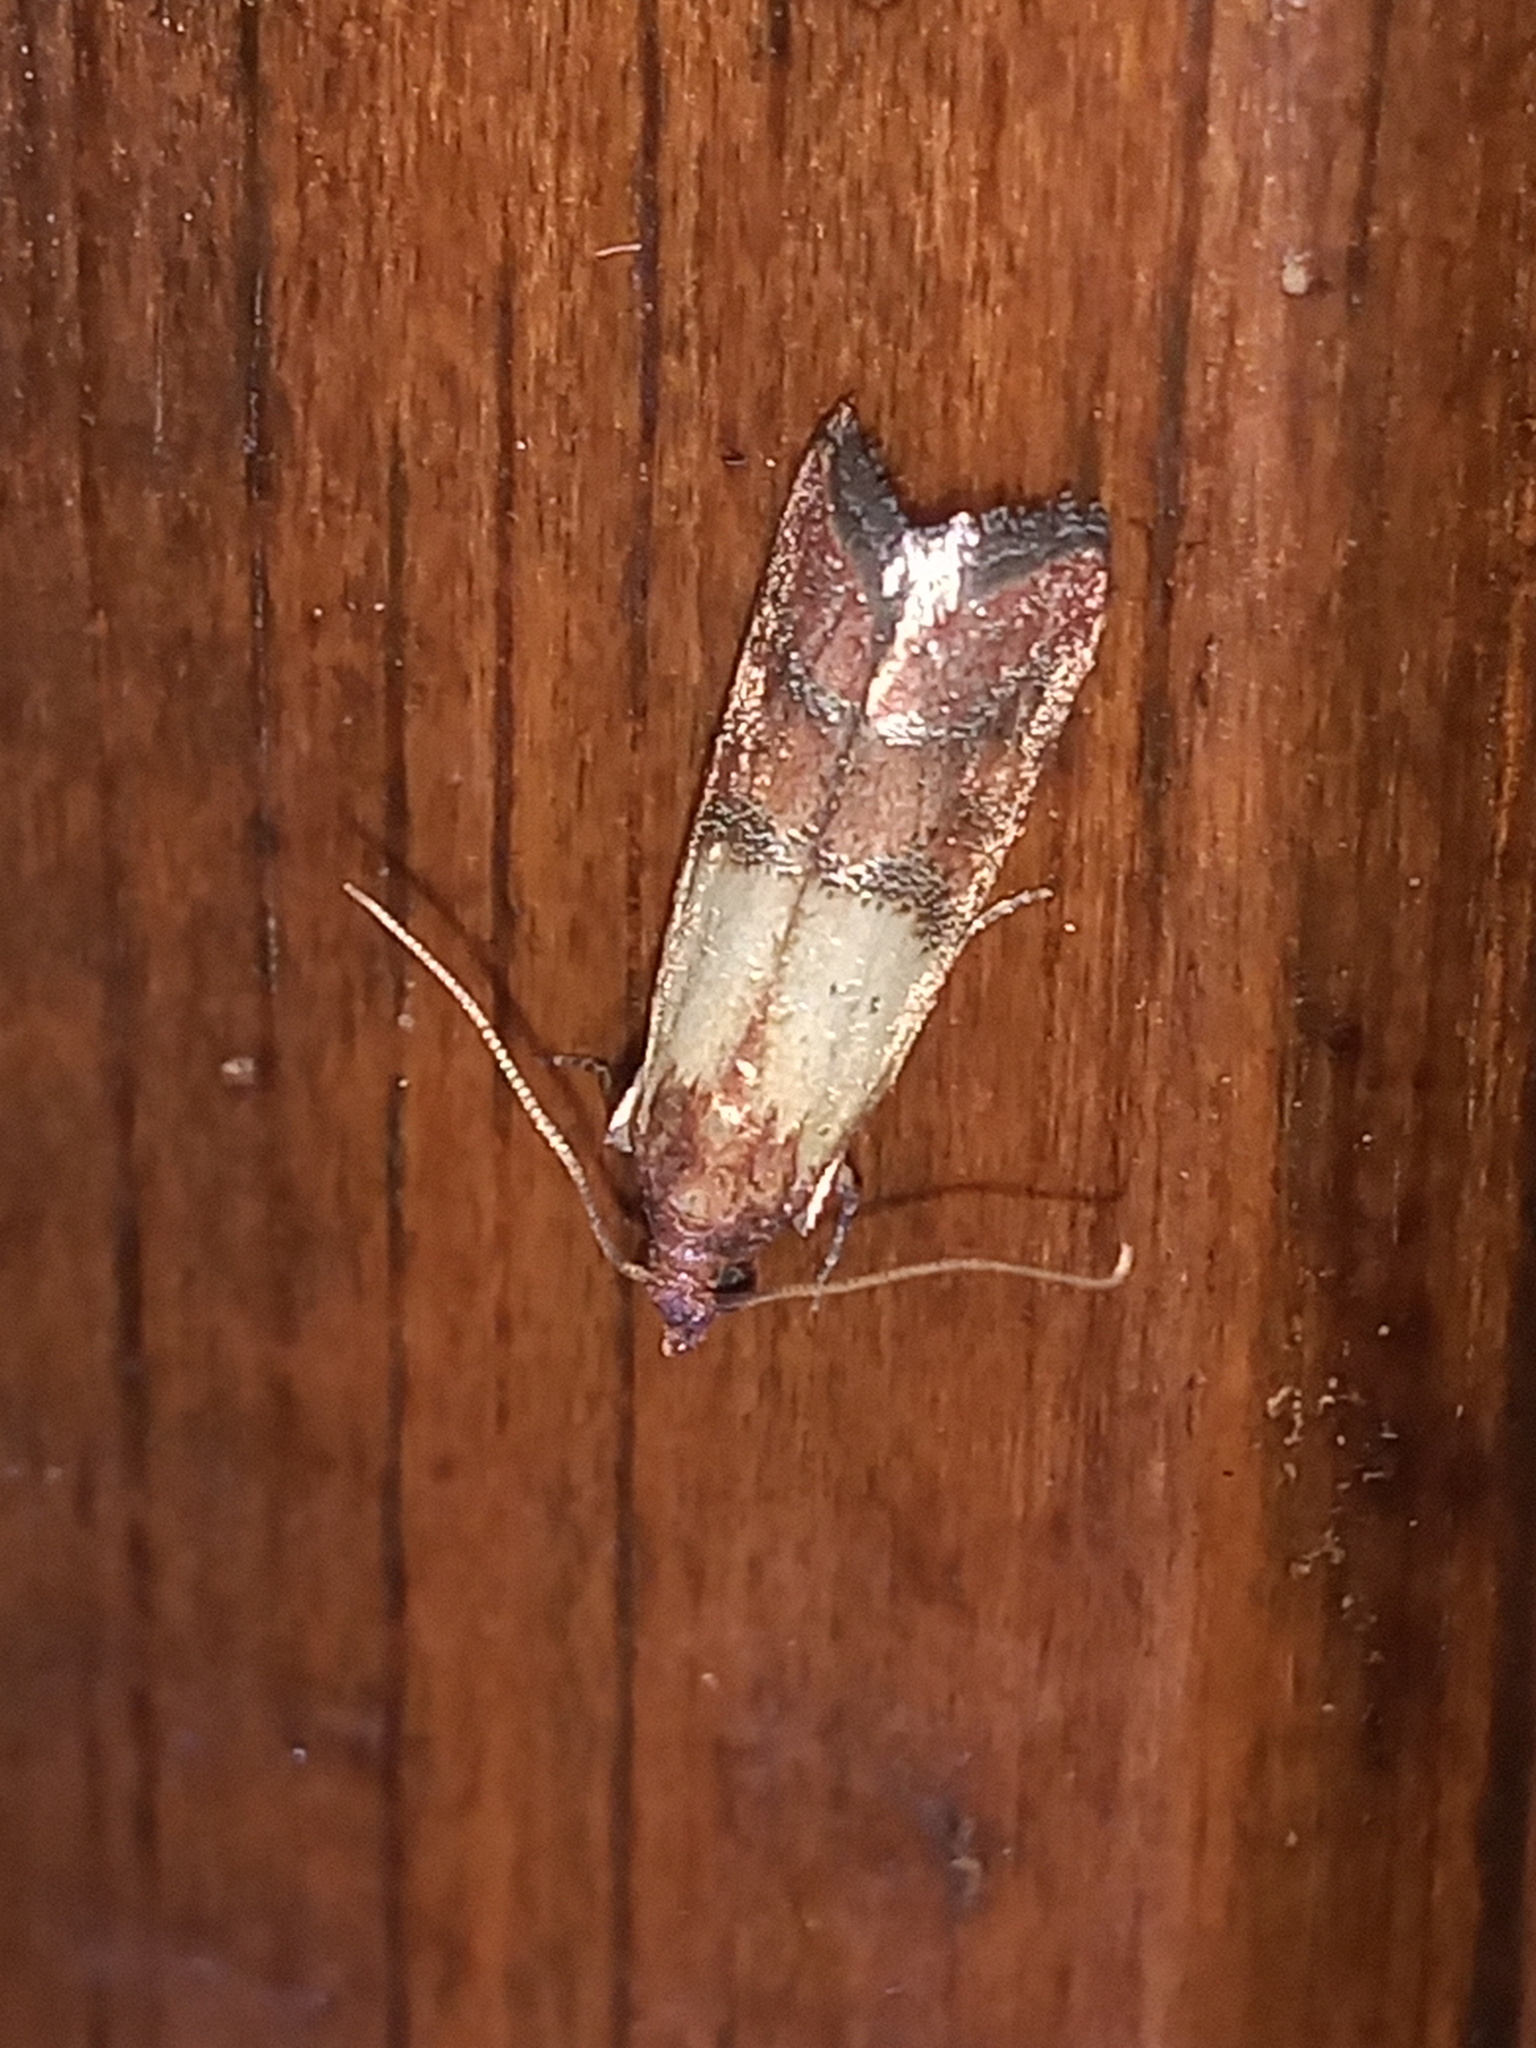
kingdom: Animalia
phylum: Arthropoda
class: Insecta
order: Lepidoptera
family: Pyralidae
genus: Plodia
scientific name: Plodia interpunctella
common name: Indian meal moth
